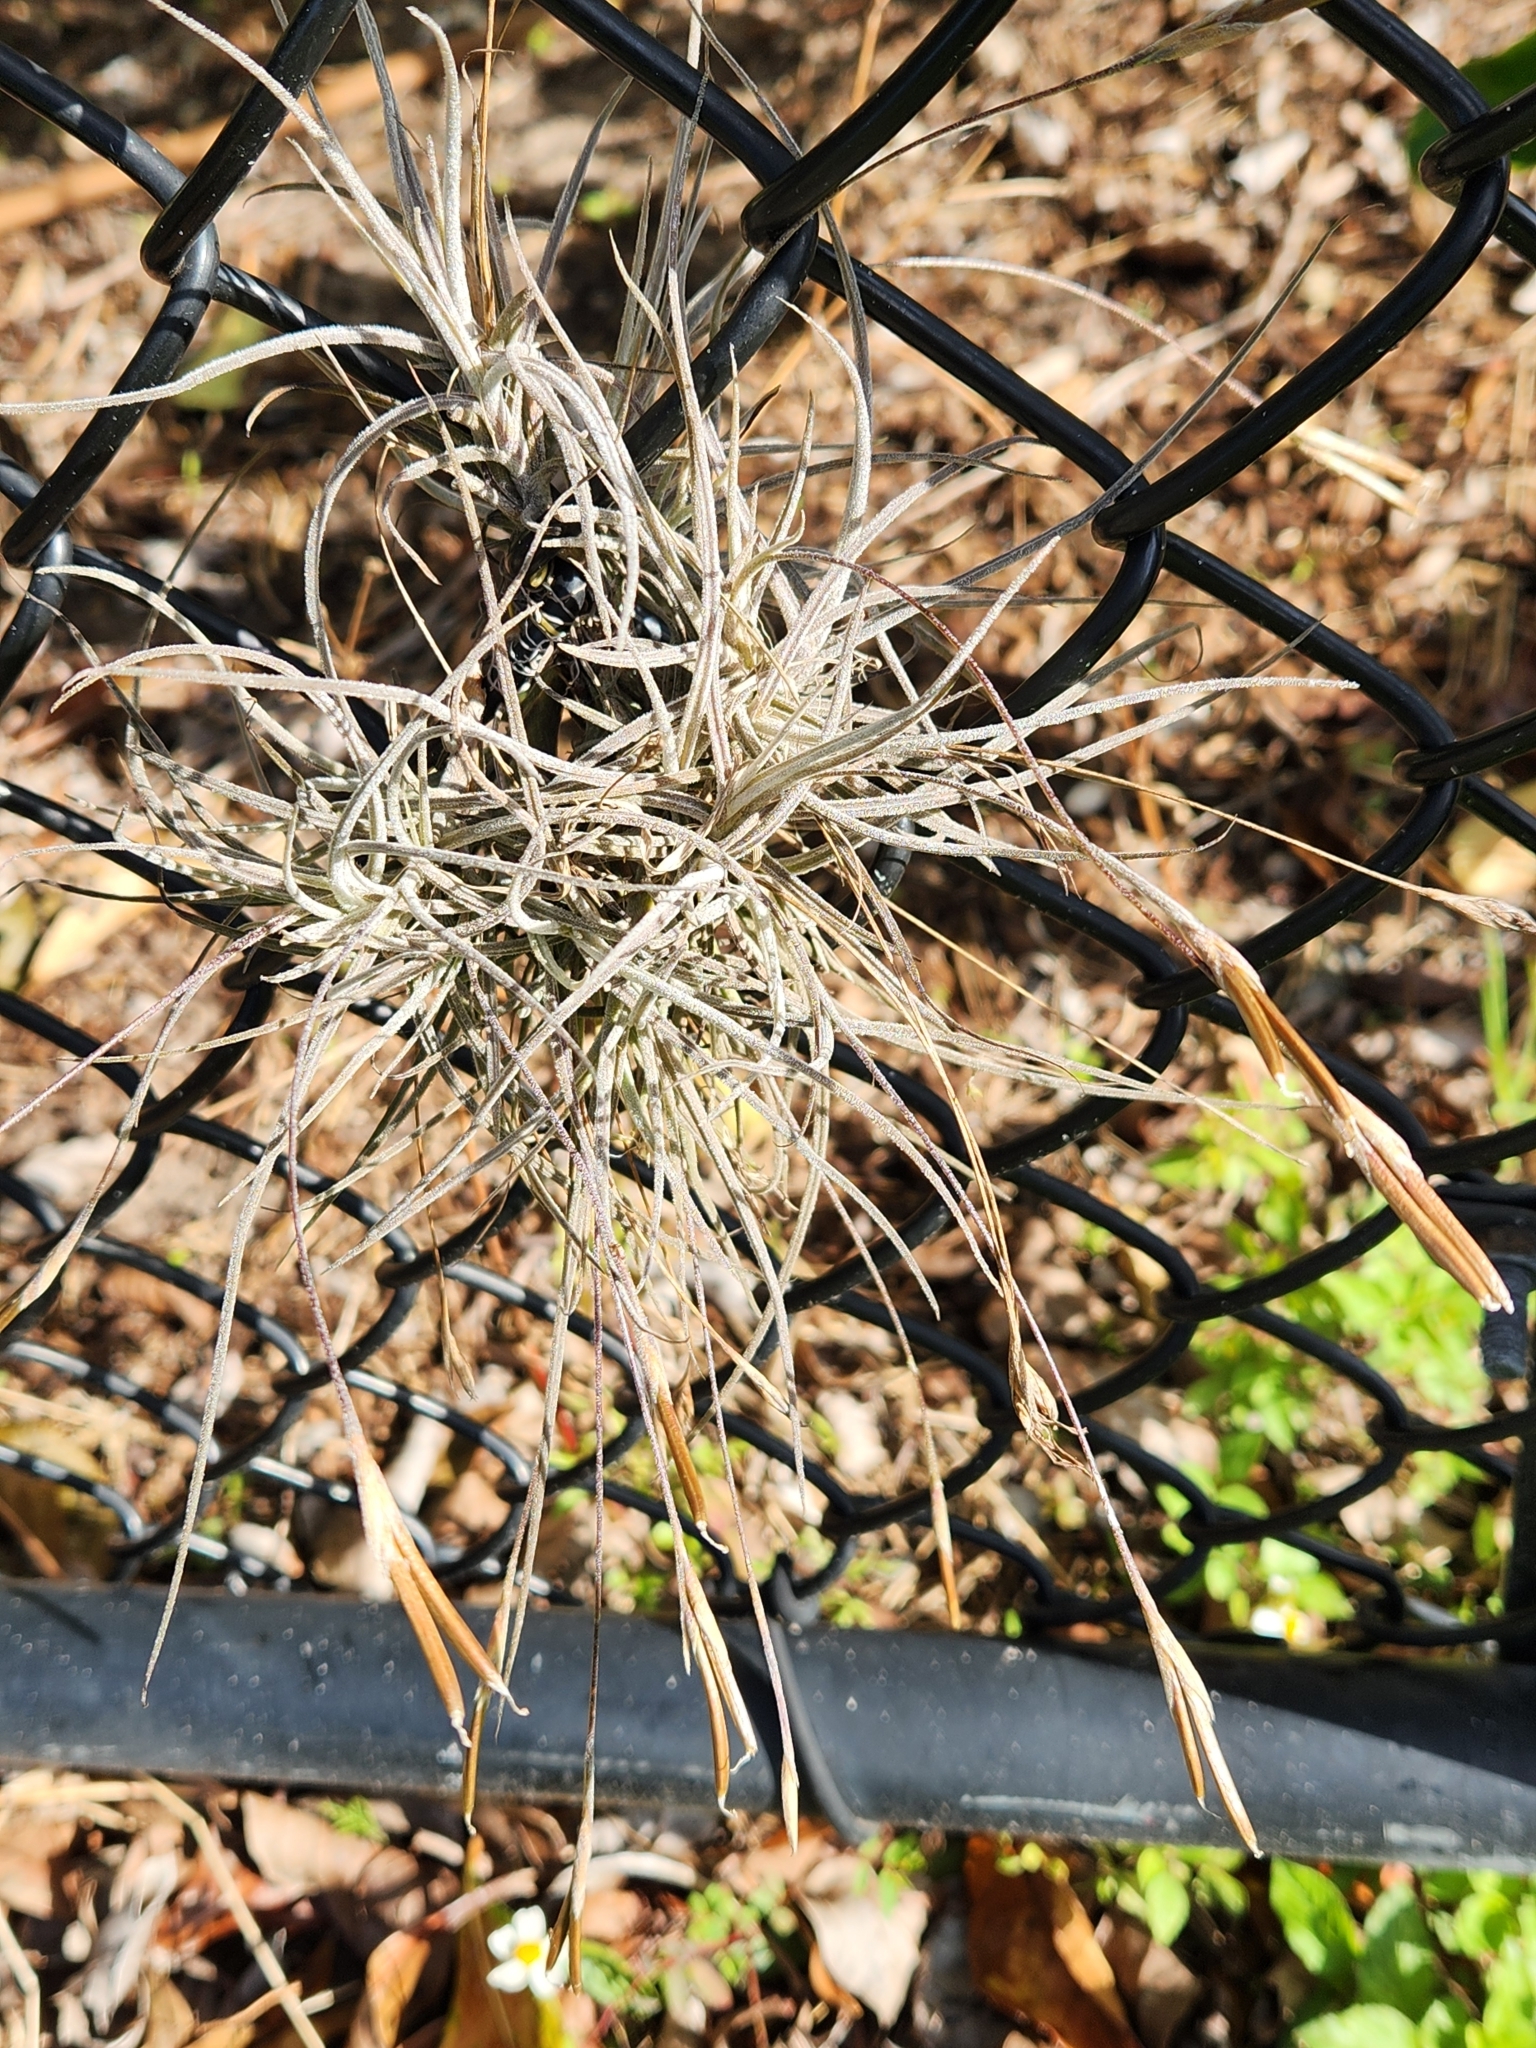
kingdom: Plantae
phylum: Tracheophyta
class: Liliopsida
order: Poales
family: Bromeliaceae
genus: Tillandsia
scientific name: Tillandsia recurvata
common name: Small ballmoss
